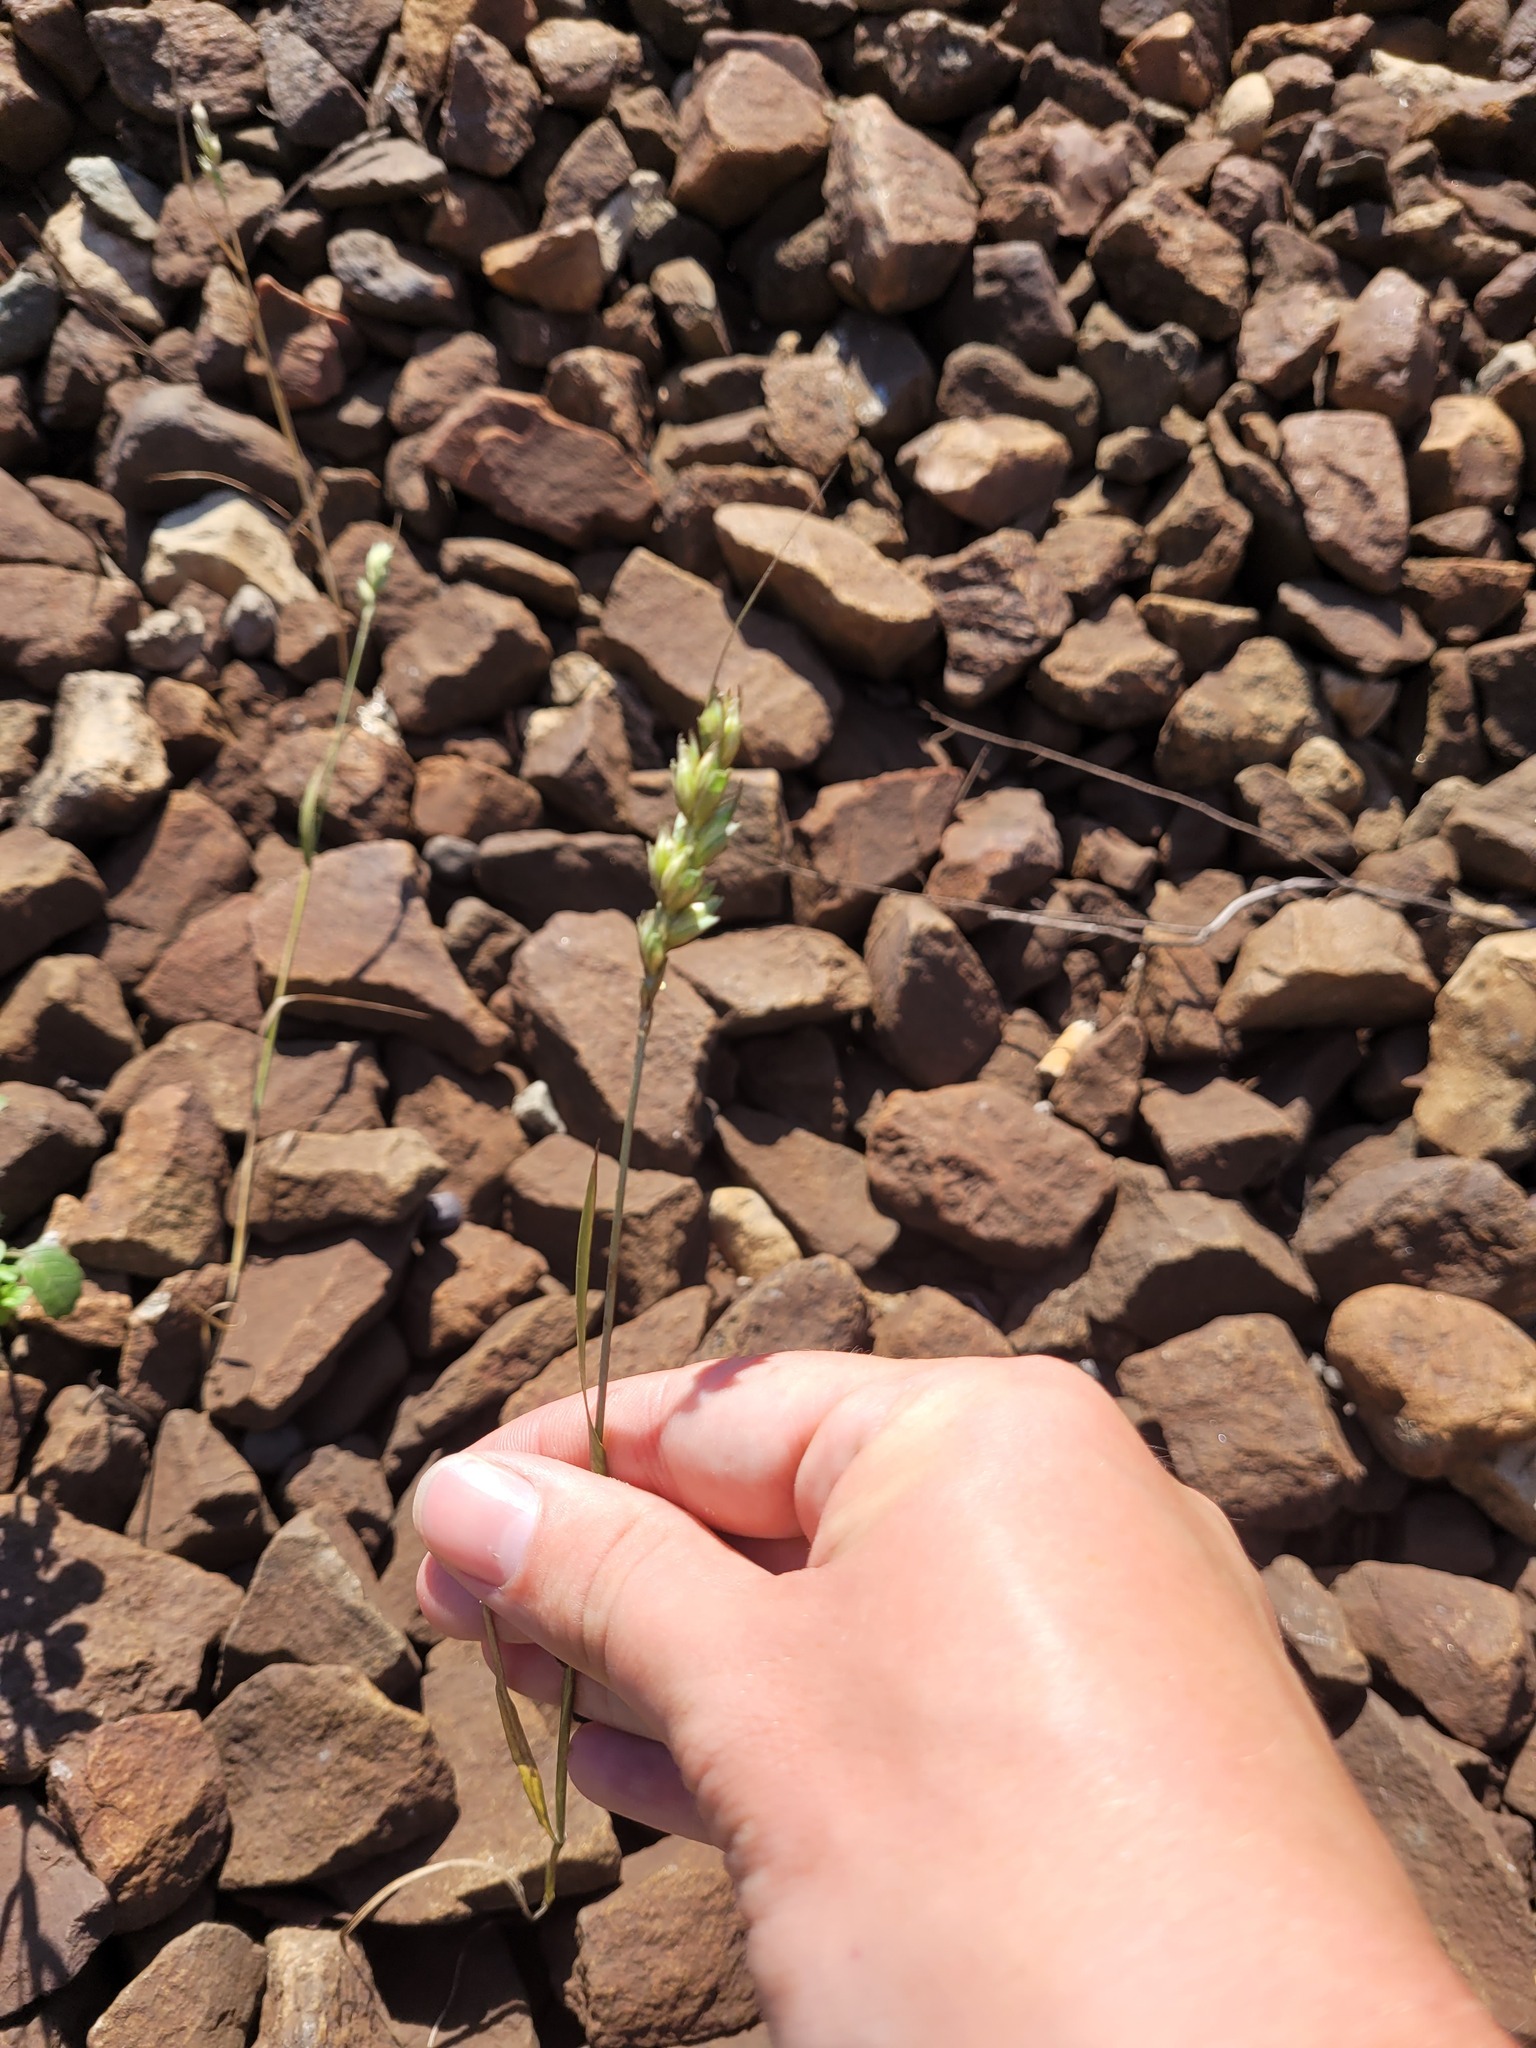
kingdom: Plantae
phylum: Tracheophyta
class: Liliopsida
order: Poales
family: Poaceae
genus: Triticum
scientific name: Triticum aestivum
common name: Common wheat
